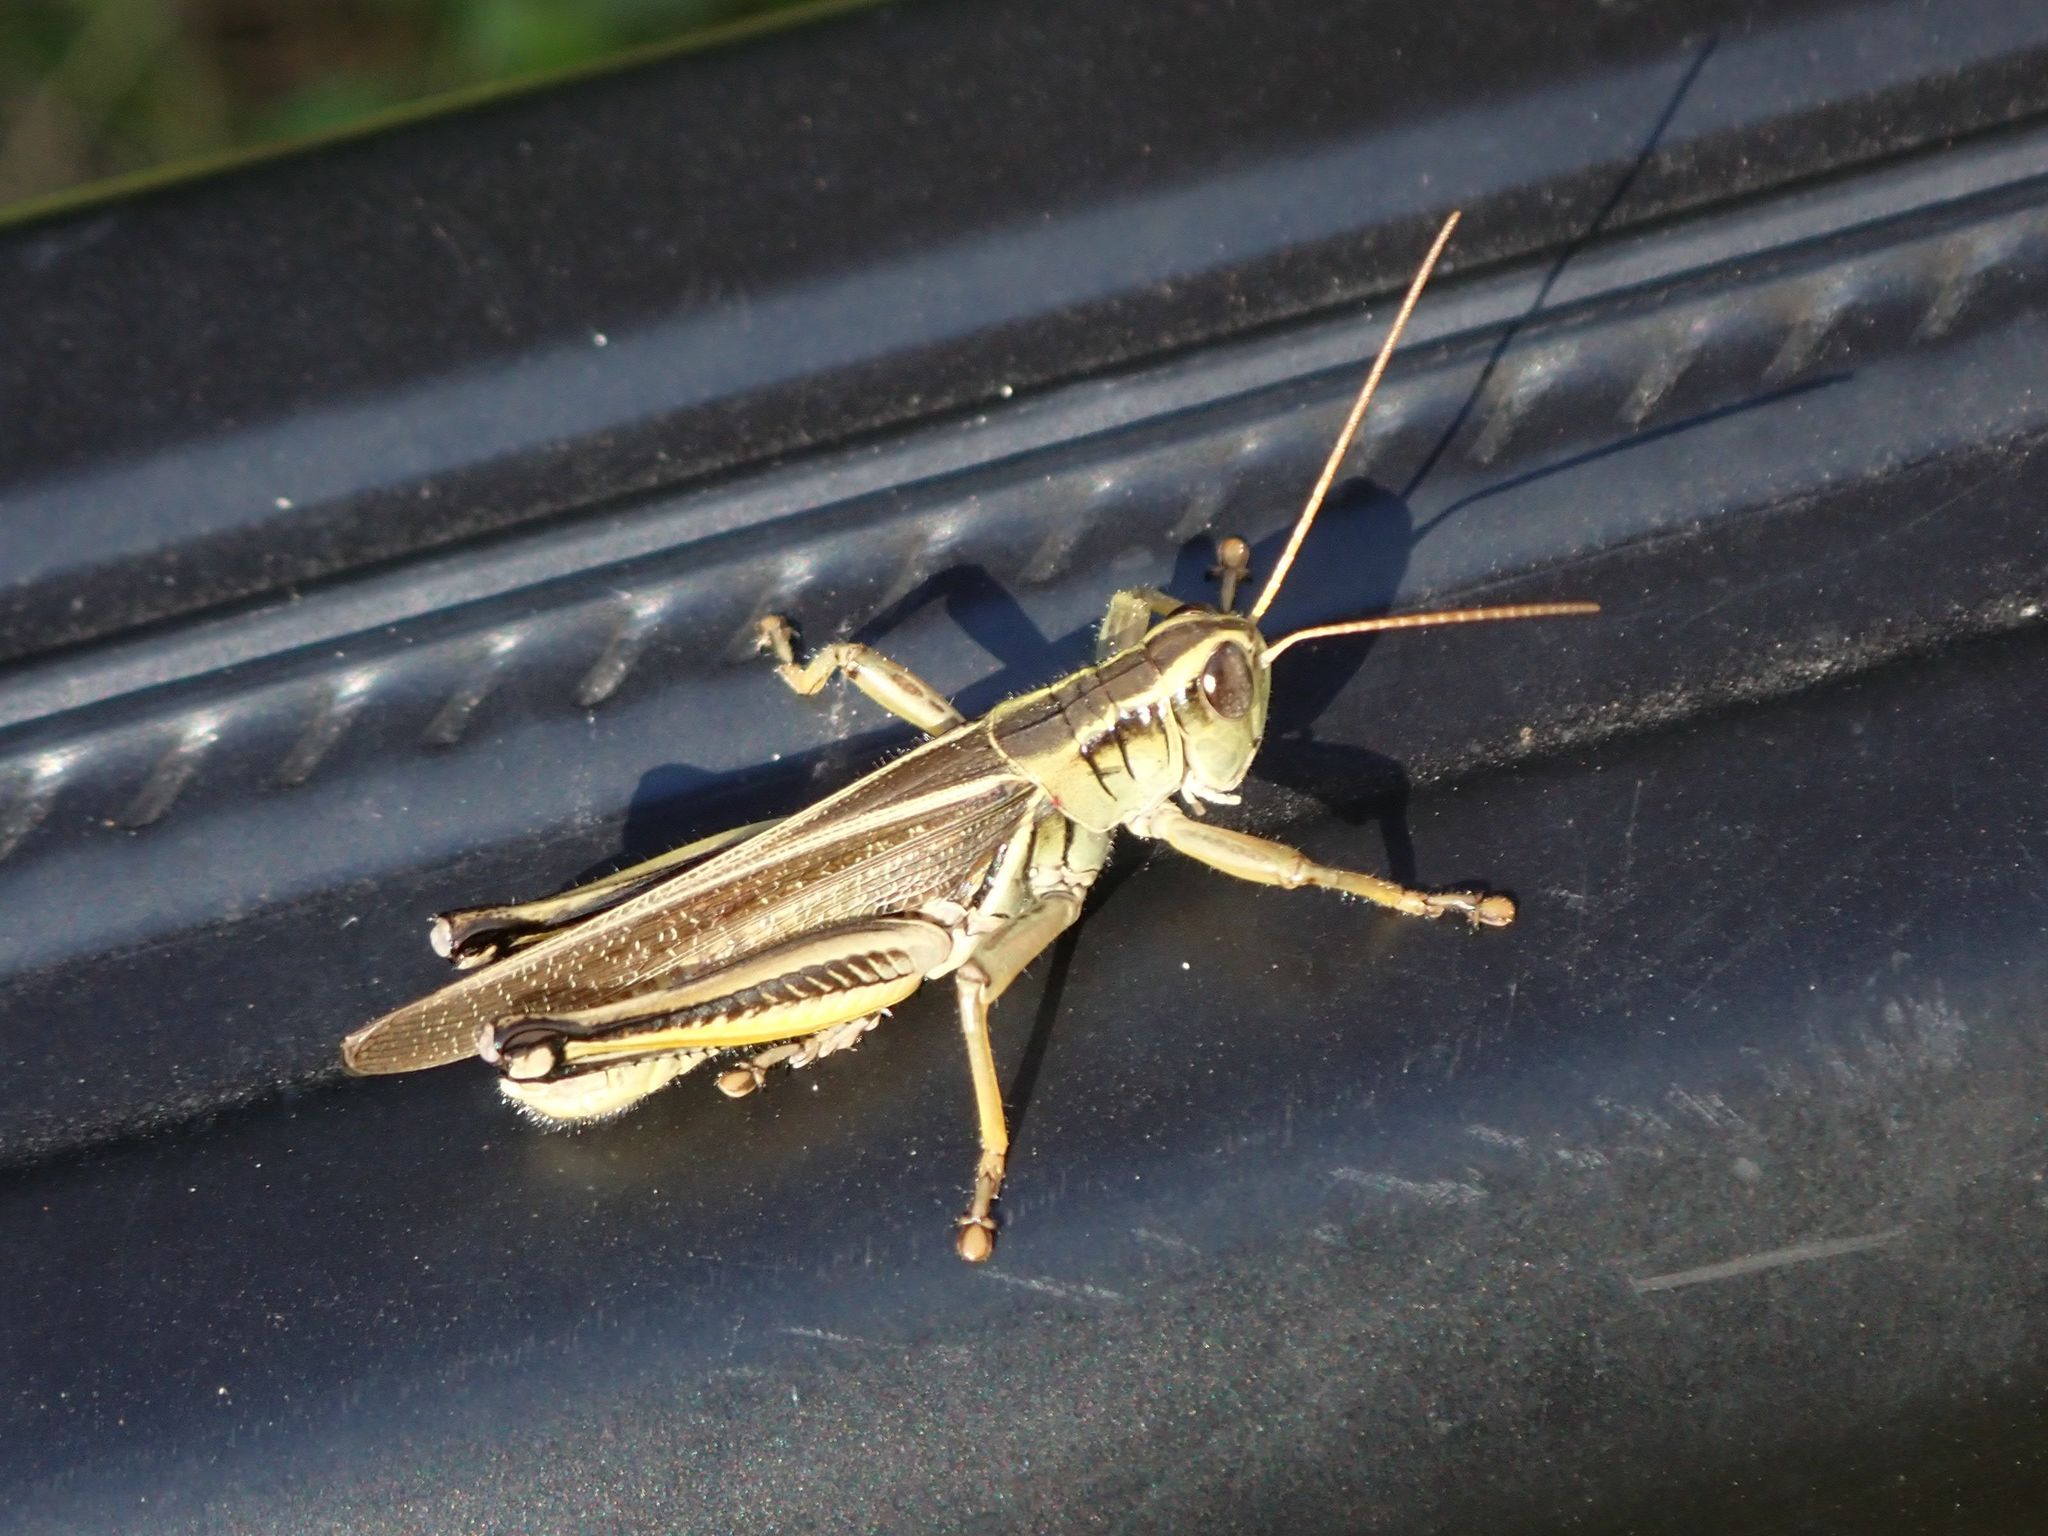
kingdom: Animalia
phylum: Arthropoda
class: Insecta
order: Orthoptera
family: Acrididae
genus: Melanoplus
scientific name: Melanoplus bivittatus
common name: Two-striped grasshopper
